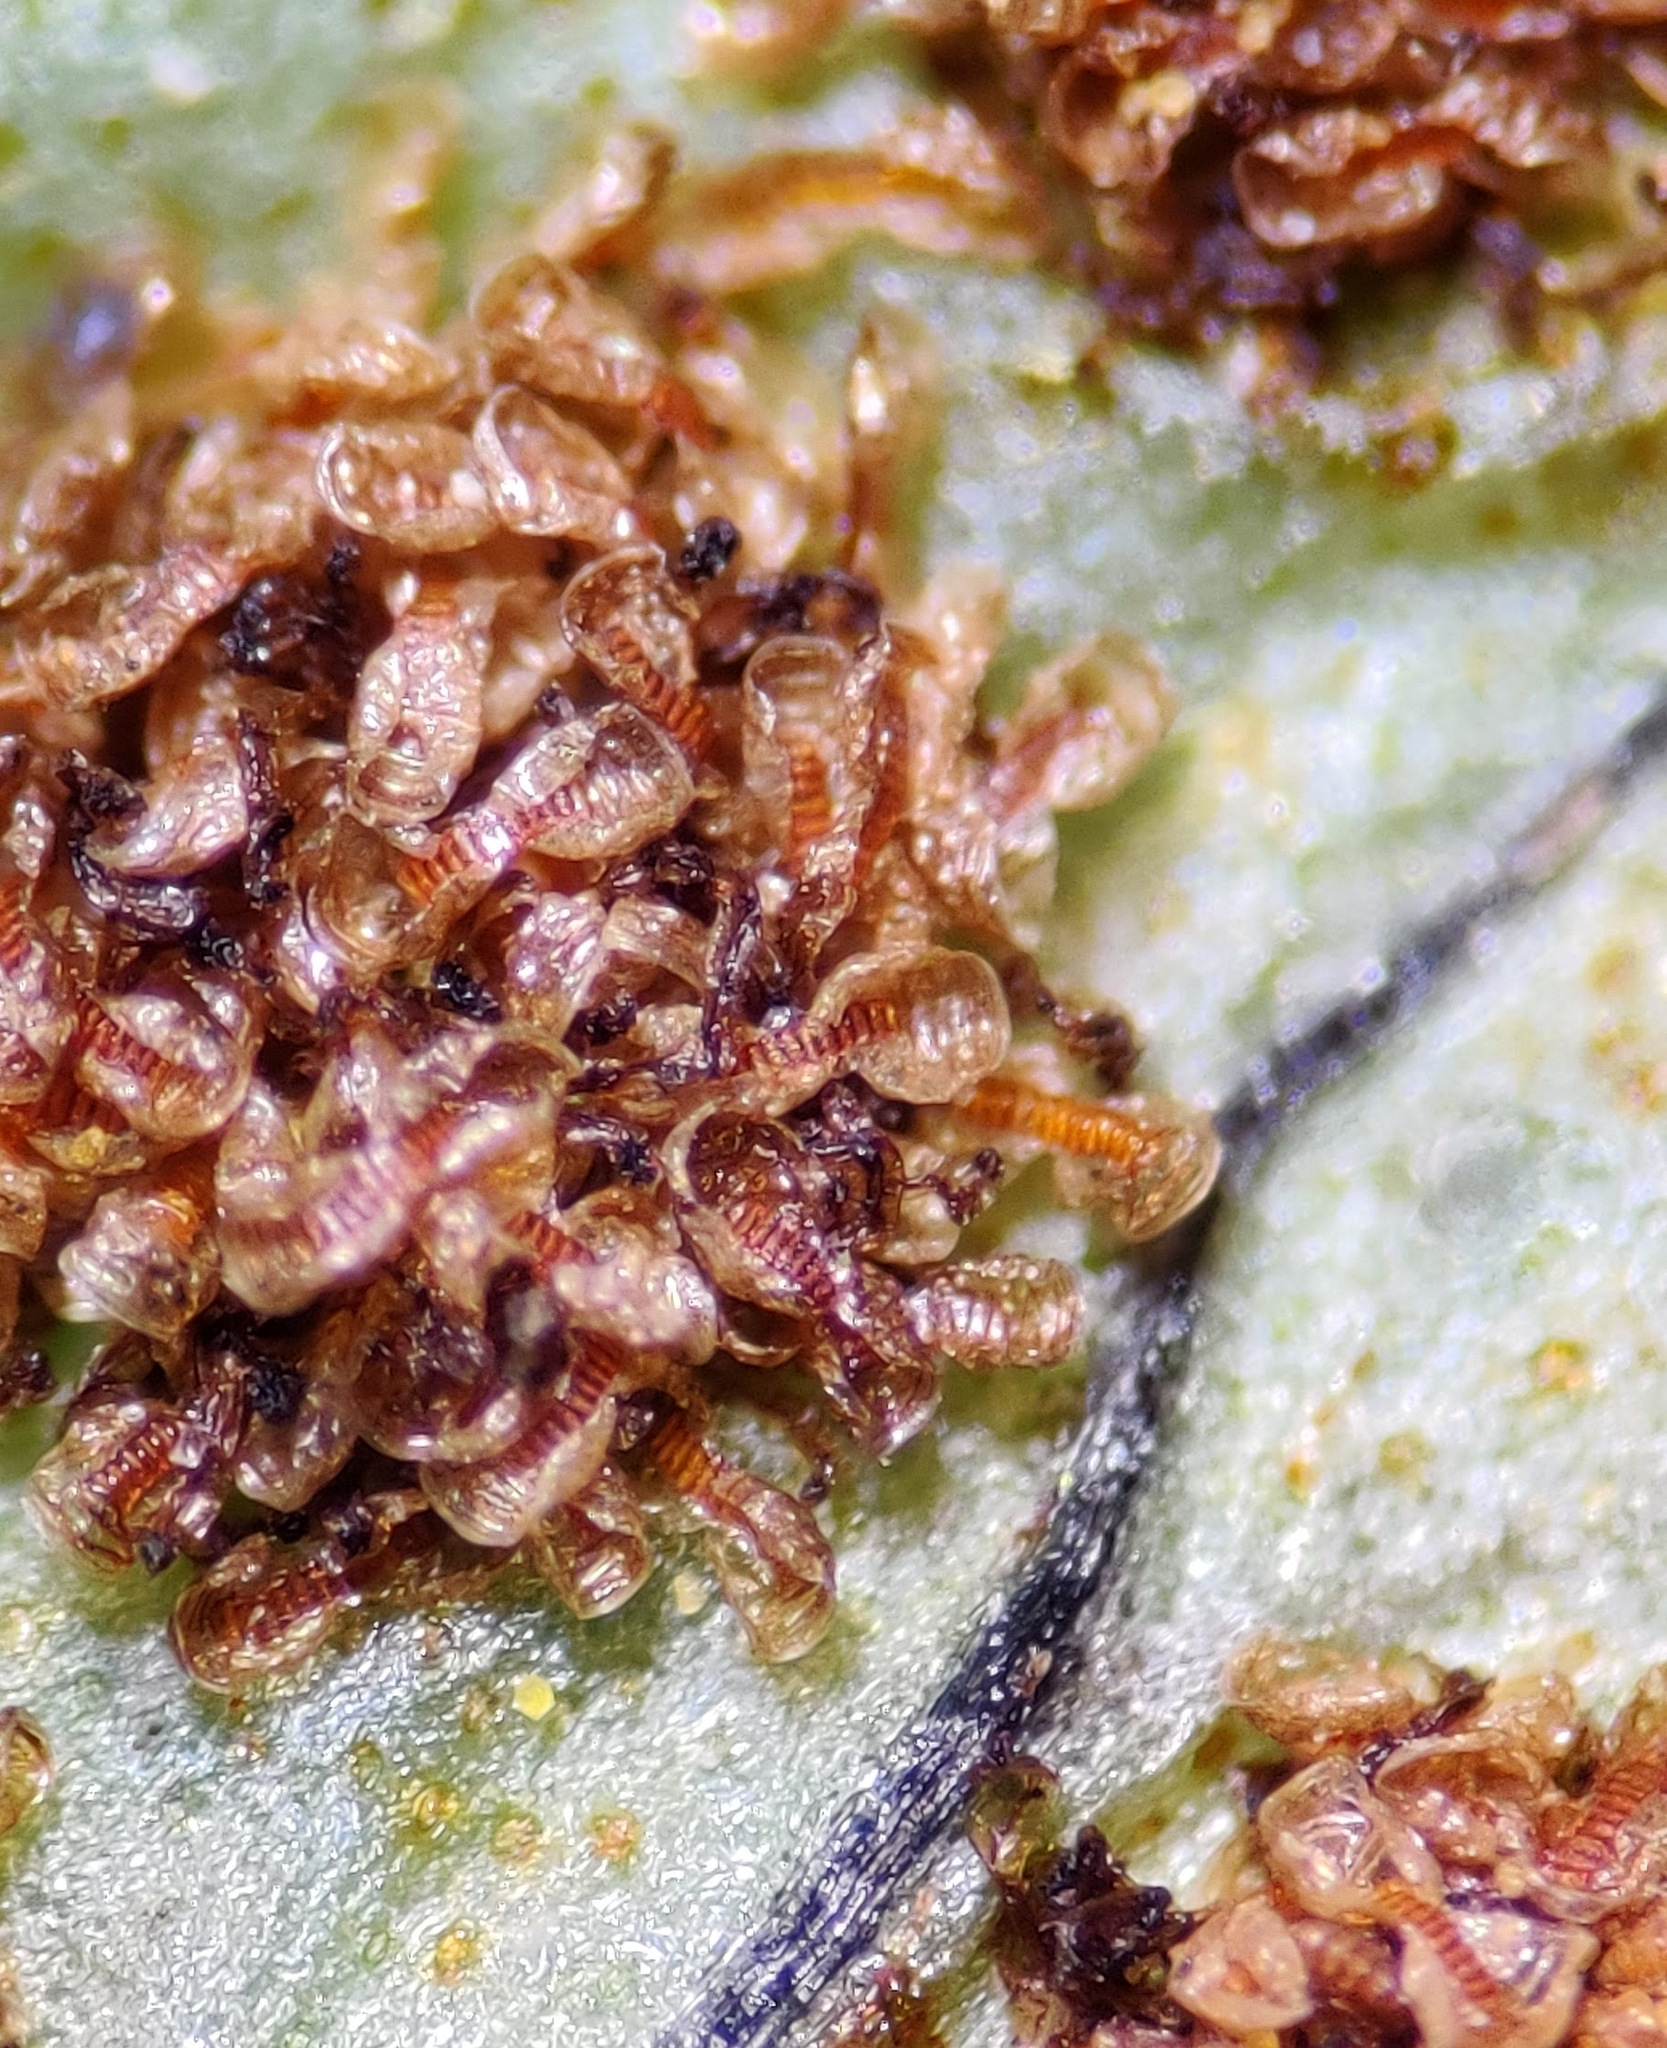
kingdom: Plantae
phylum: Tracheophyta
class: Polypodiopsida
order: Polypodiales
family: Polypodiaceae
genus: Polypodium
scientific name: Polypodium vulgare
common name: Common polypody
